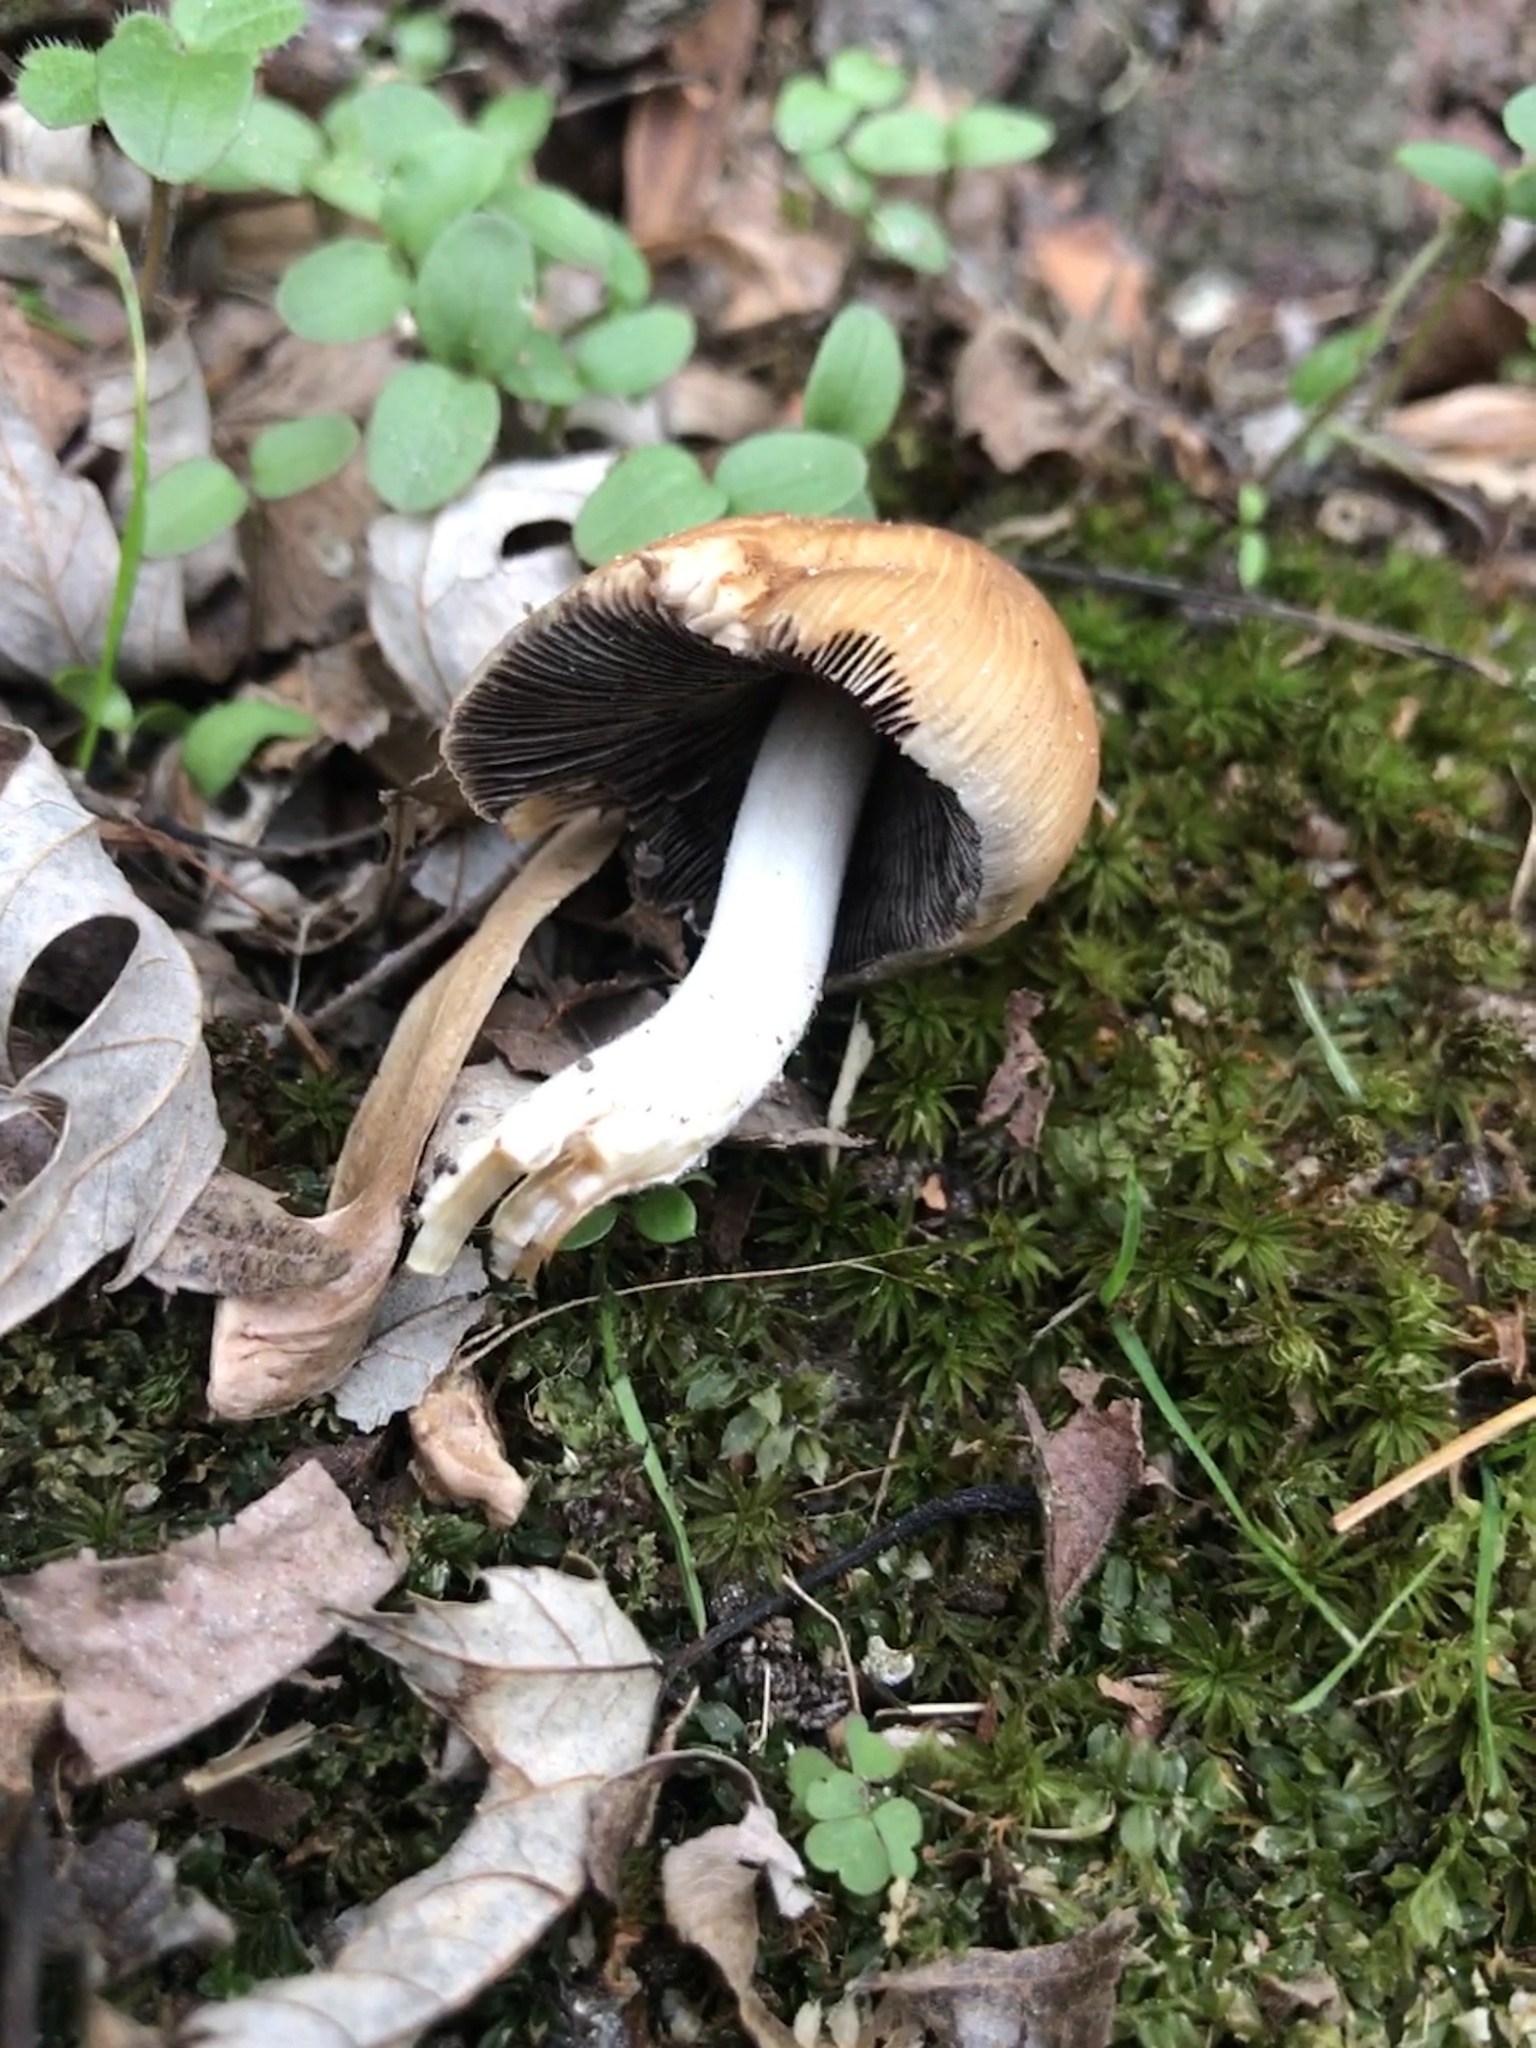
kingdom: Fungi
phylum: Basidiomycota
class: Agaricomycetes
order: Agaricales
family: Psathyrellaceae
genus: Coprinellus
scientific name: Coprinellus micaceus
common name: Glistening ink-cap
